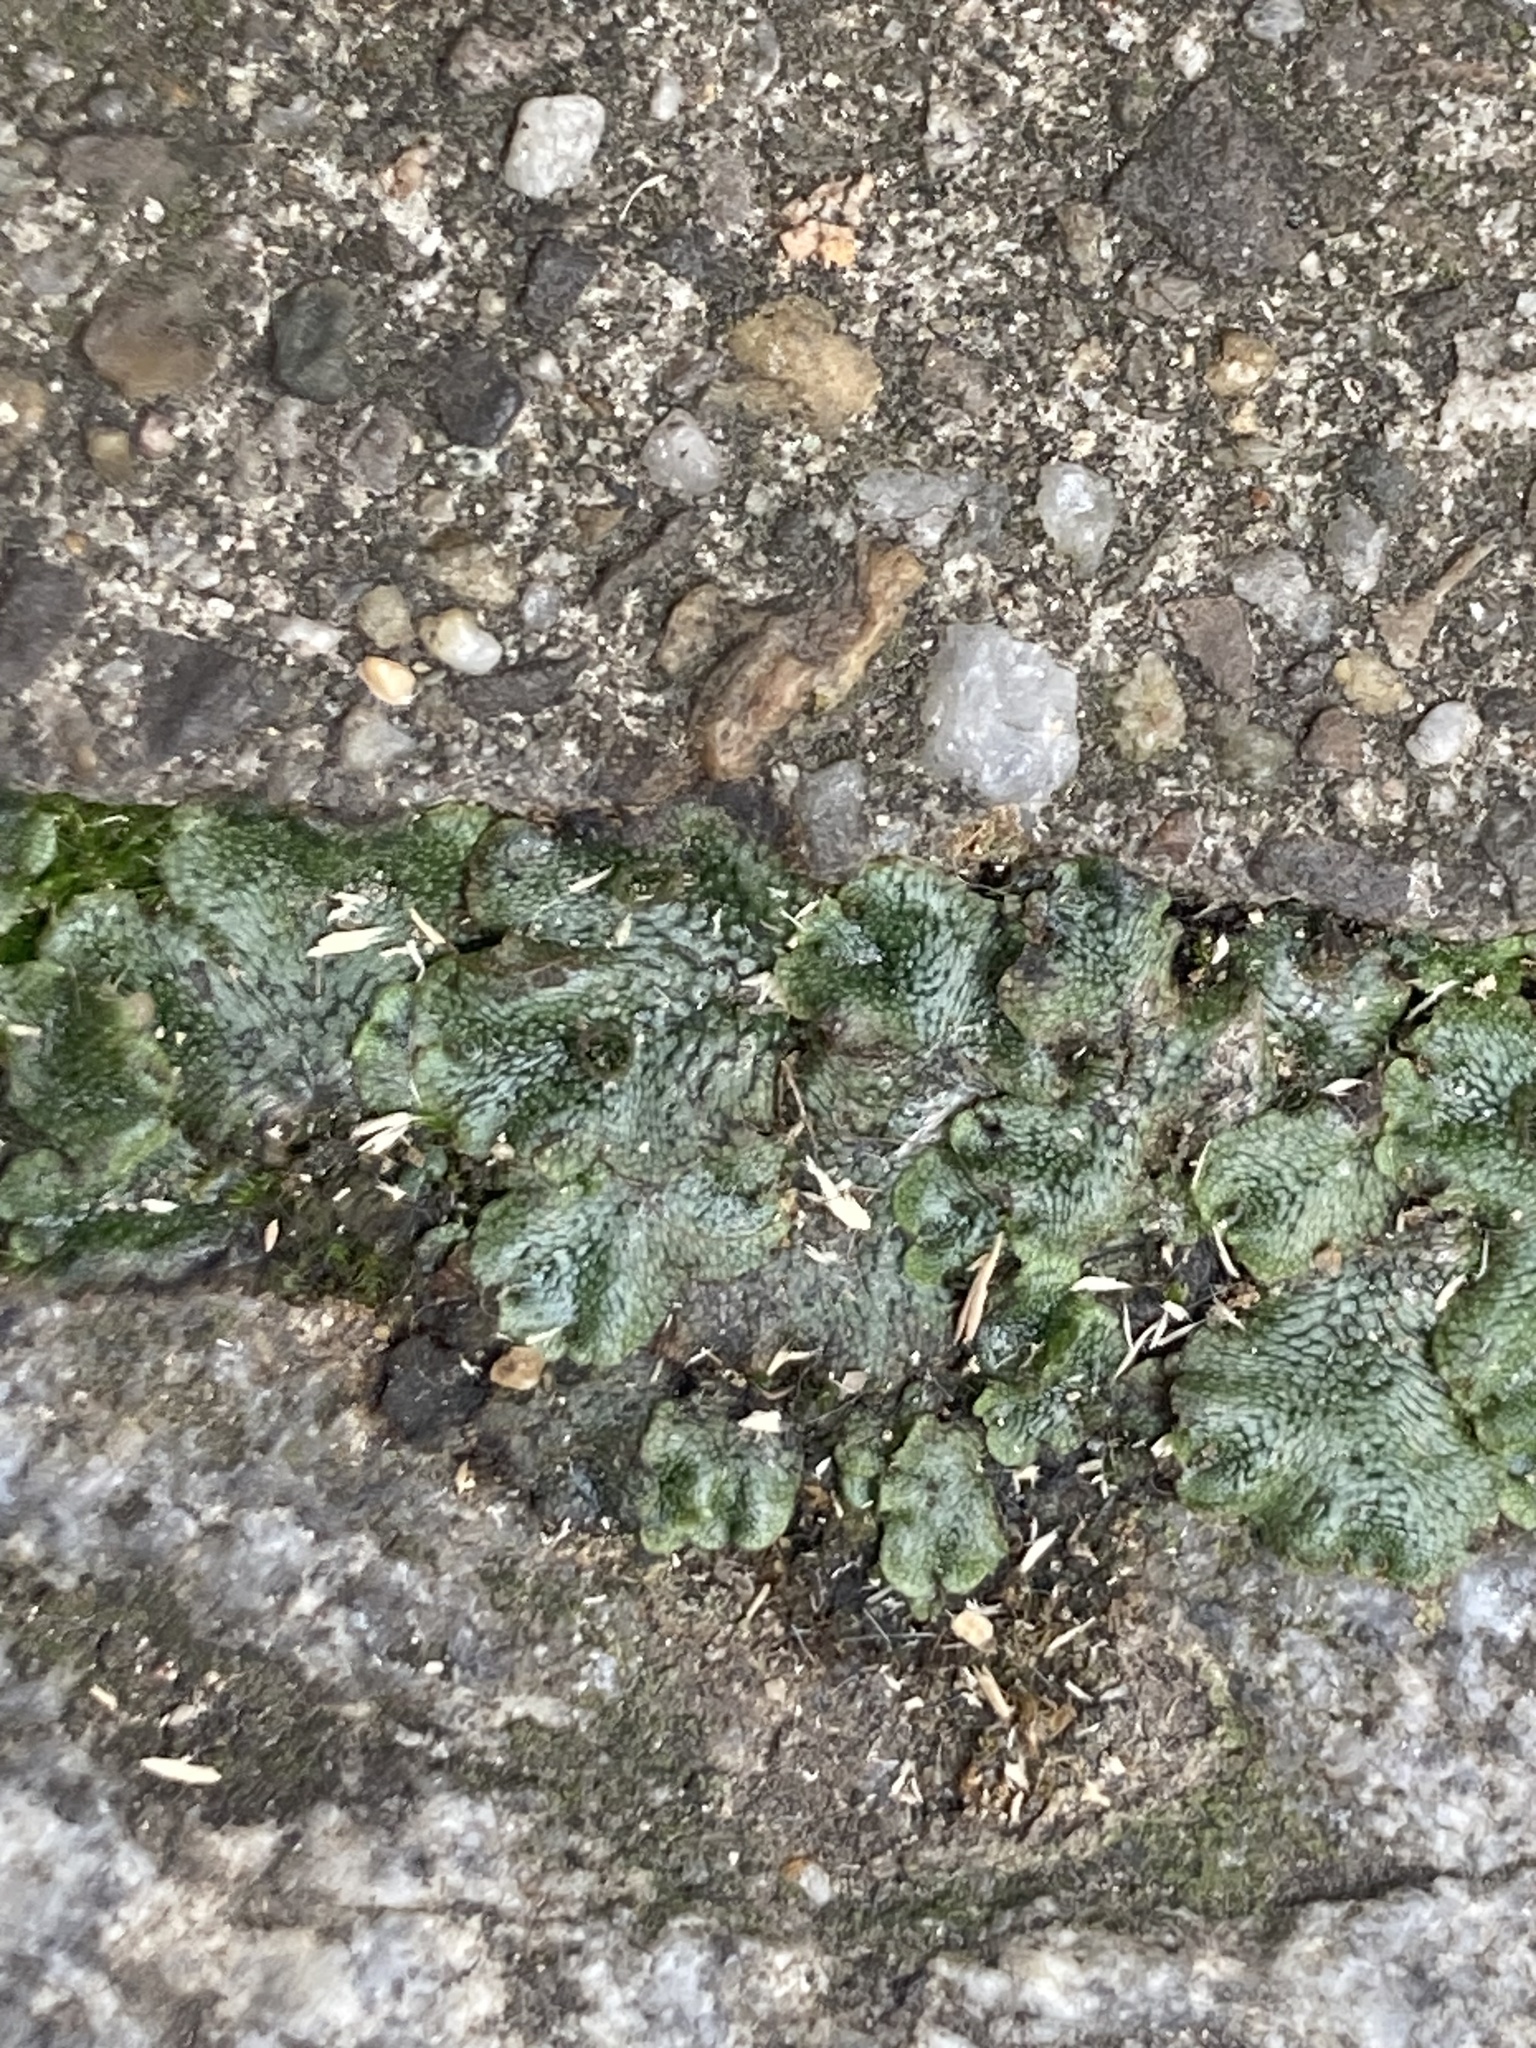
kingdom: Plantae
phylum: Marchantiophyta
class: Marchantiopsida
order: Marchantiales
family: Marchantiaceae
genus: Marchantia
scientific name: Marchantia polymorpha
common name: Common liverwort
